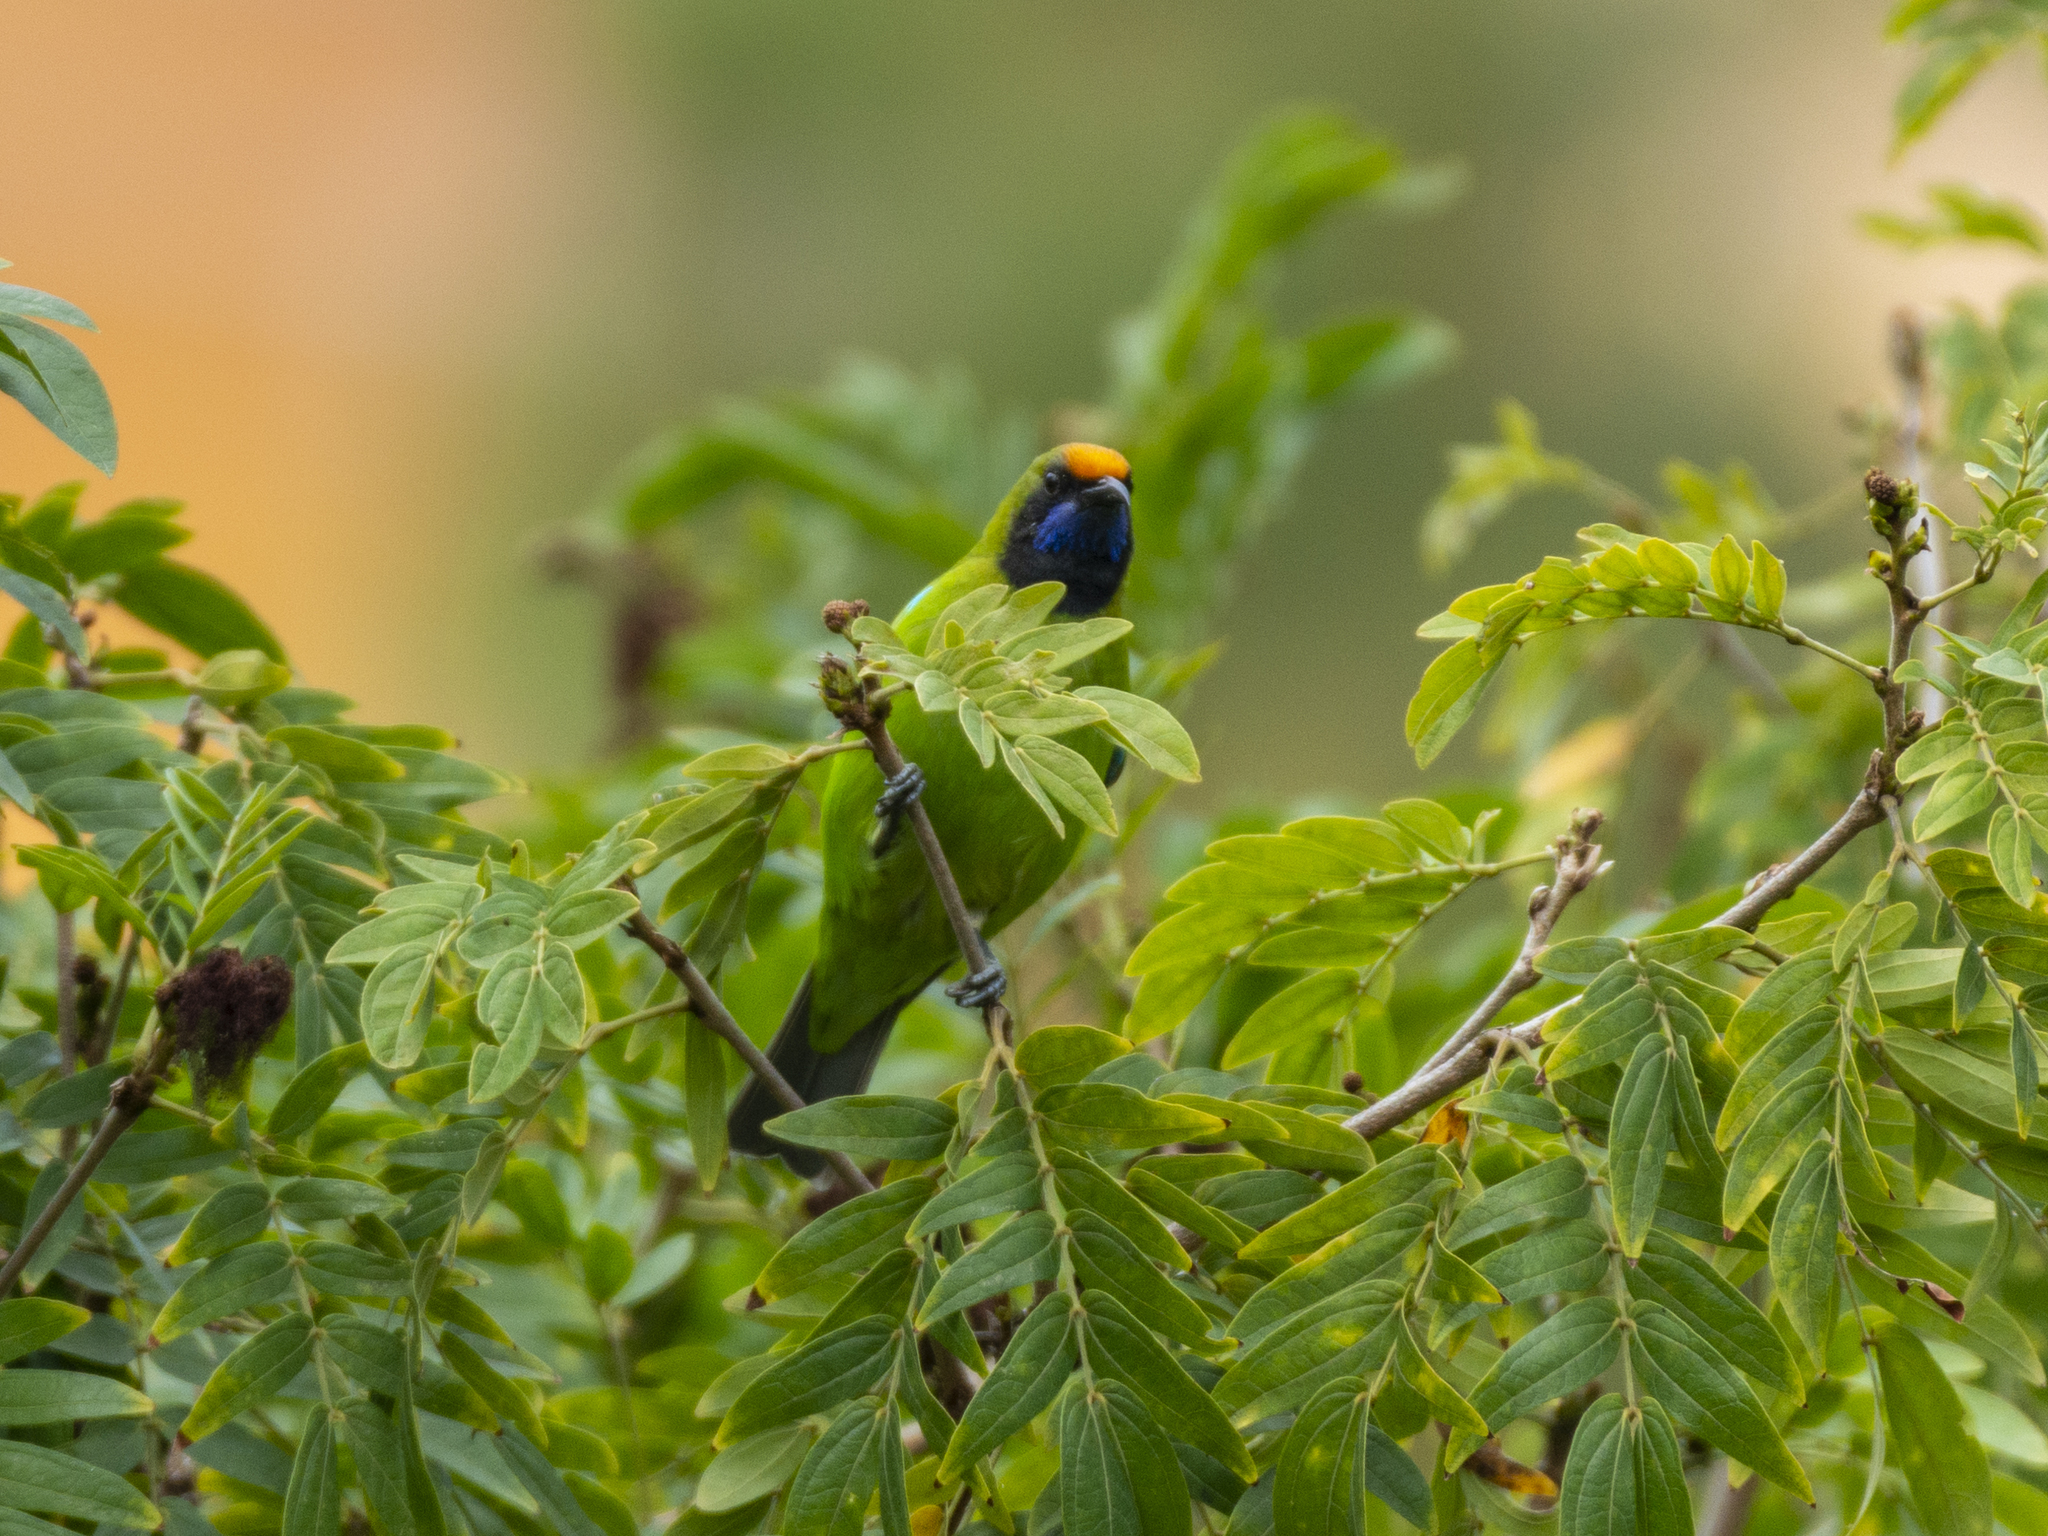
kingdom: Animalia
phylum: Chordata
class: Aves
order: Passeriformes
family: Chloropseidae
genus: Chloropsis
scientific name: Chloropsis aurifrons
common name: Golden-fronted leafbird
